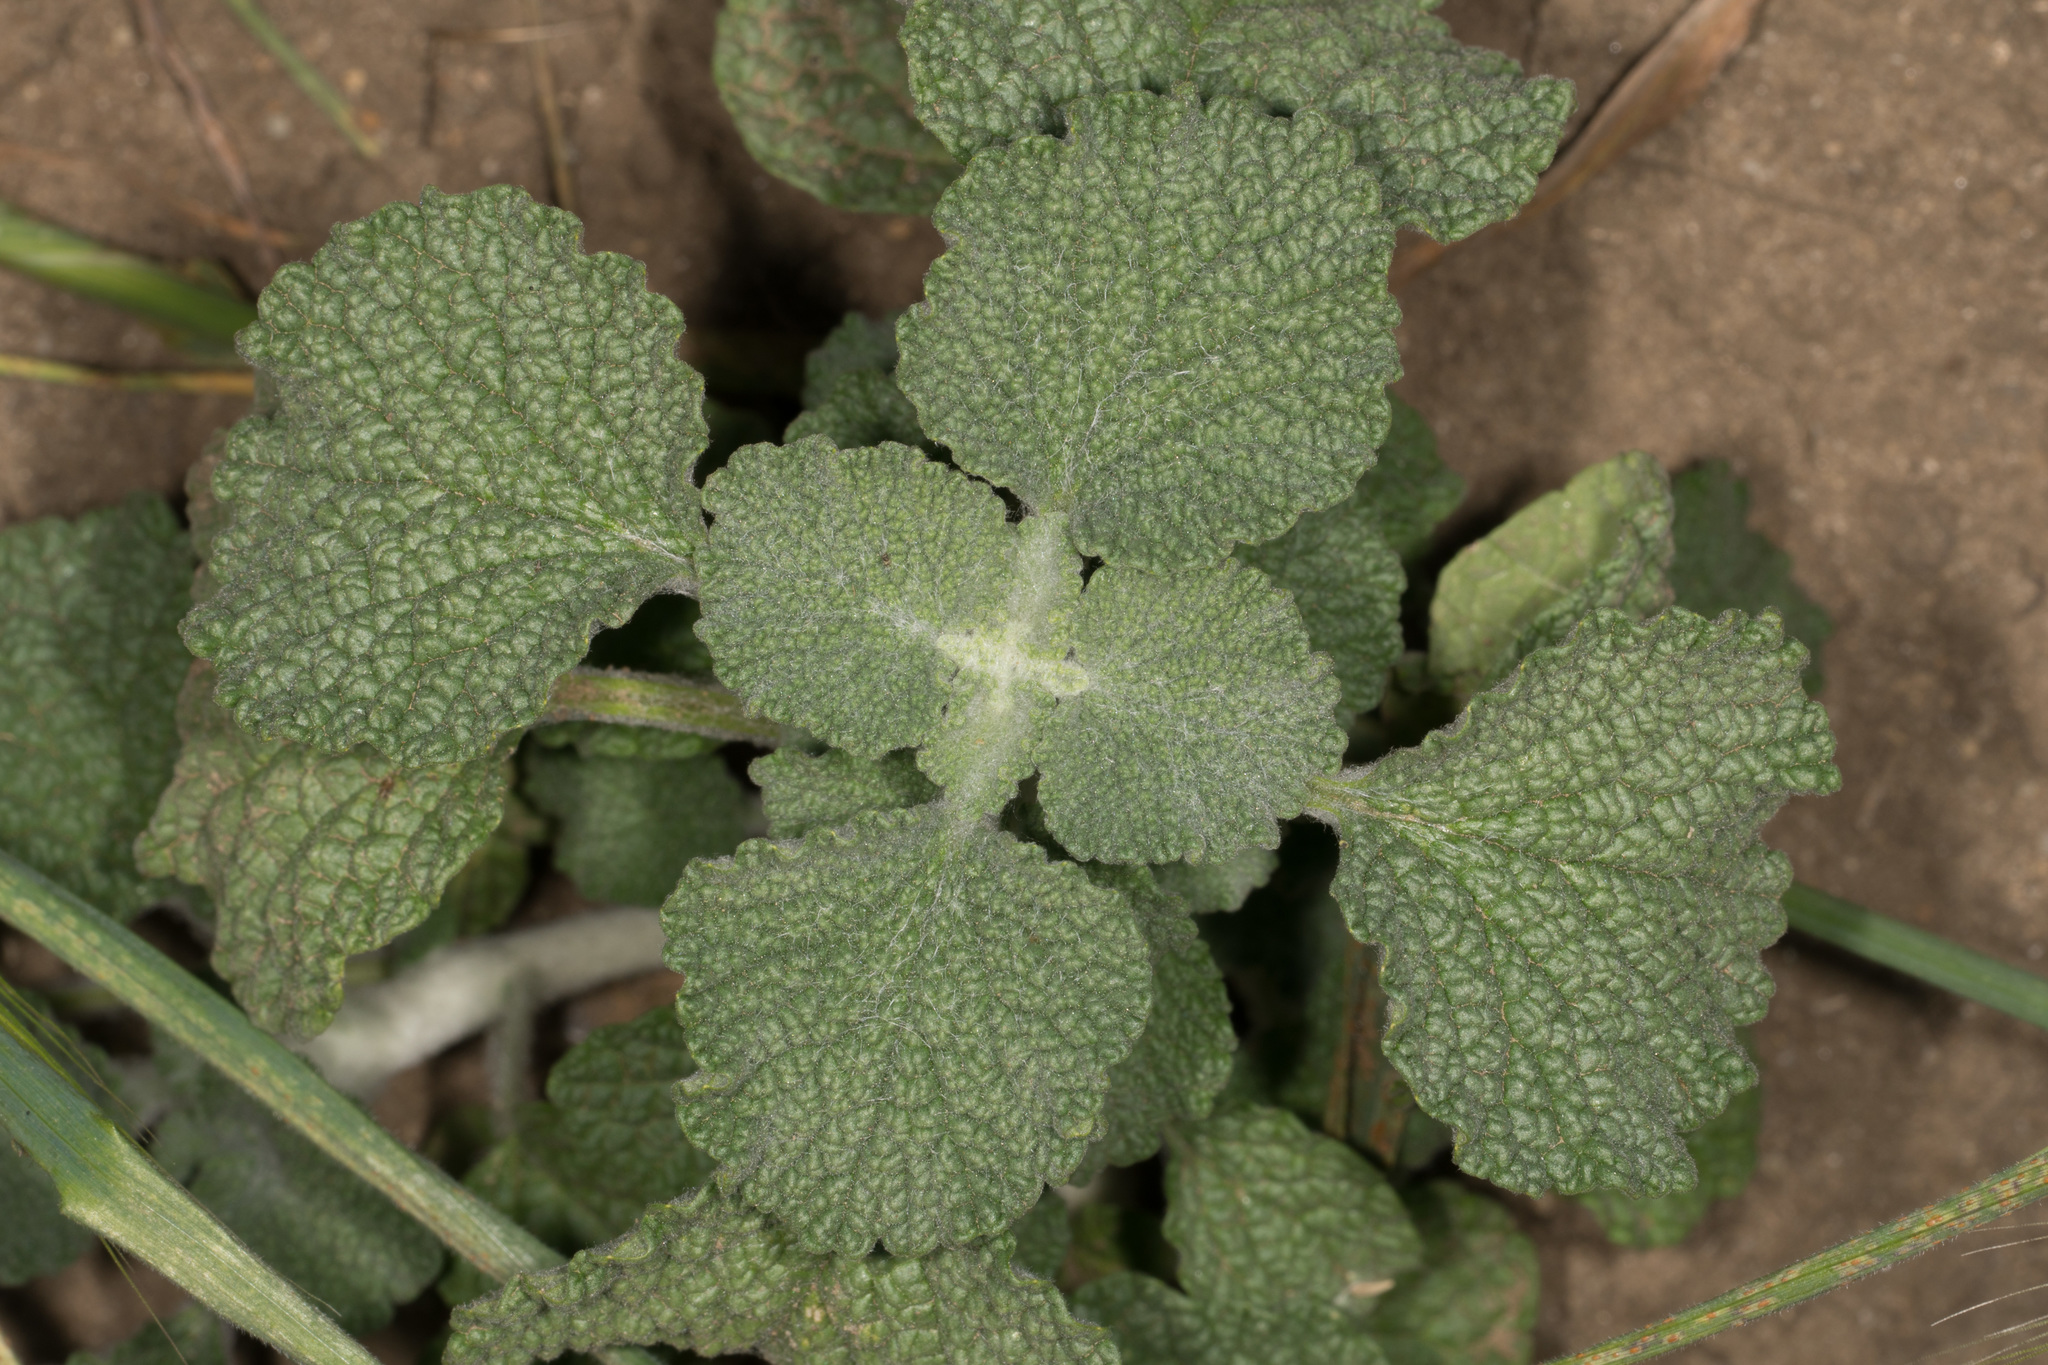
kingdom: Plantae
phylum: Tracheophyta
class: Magnoliopsida
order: Lamiales
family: Lamiaceae
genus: Marrubium
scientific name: Marrubium vulgare
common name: Horehound
